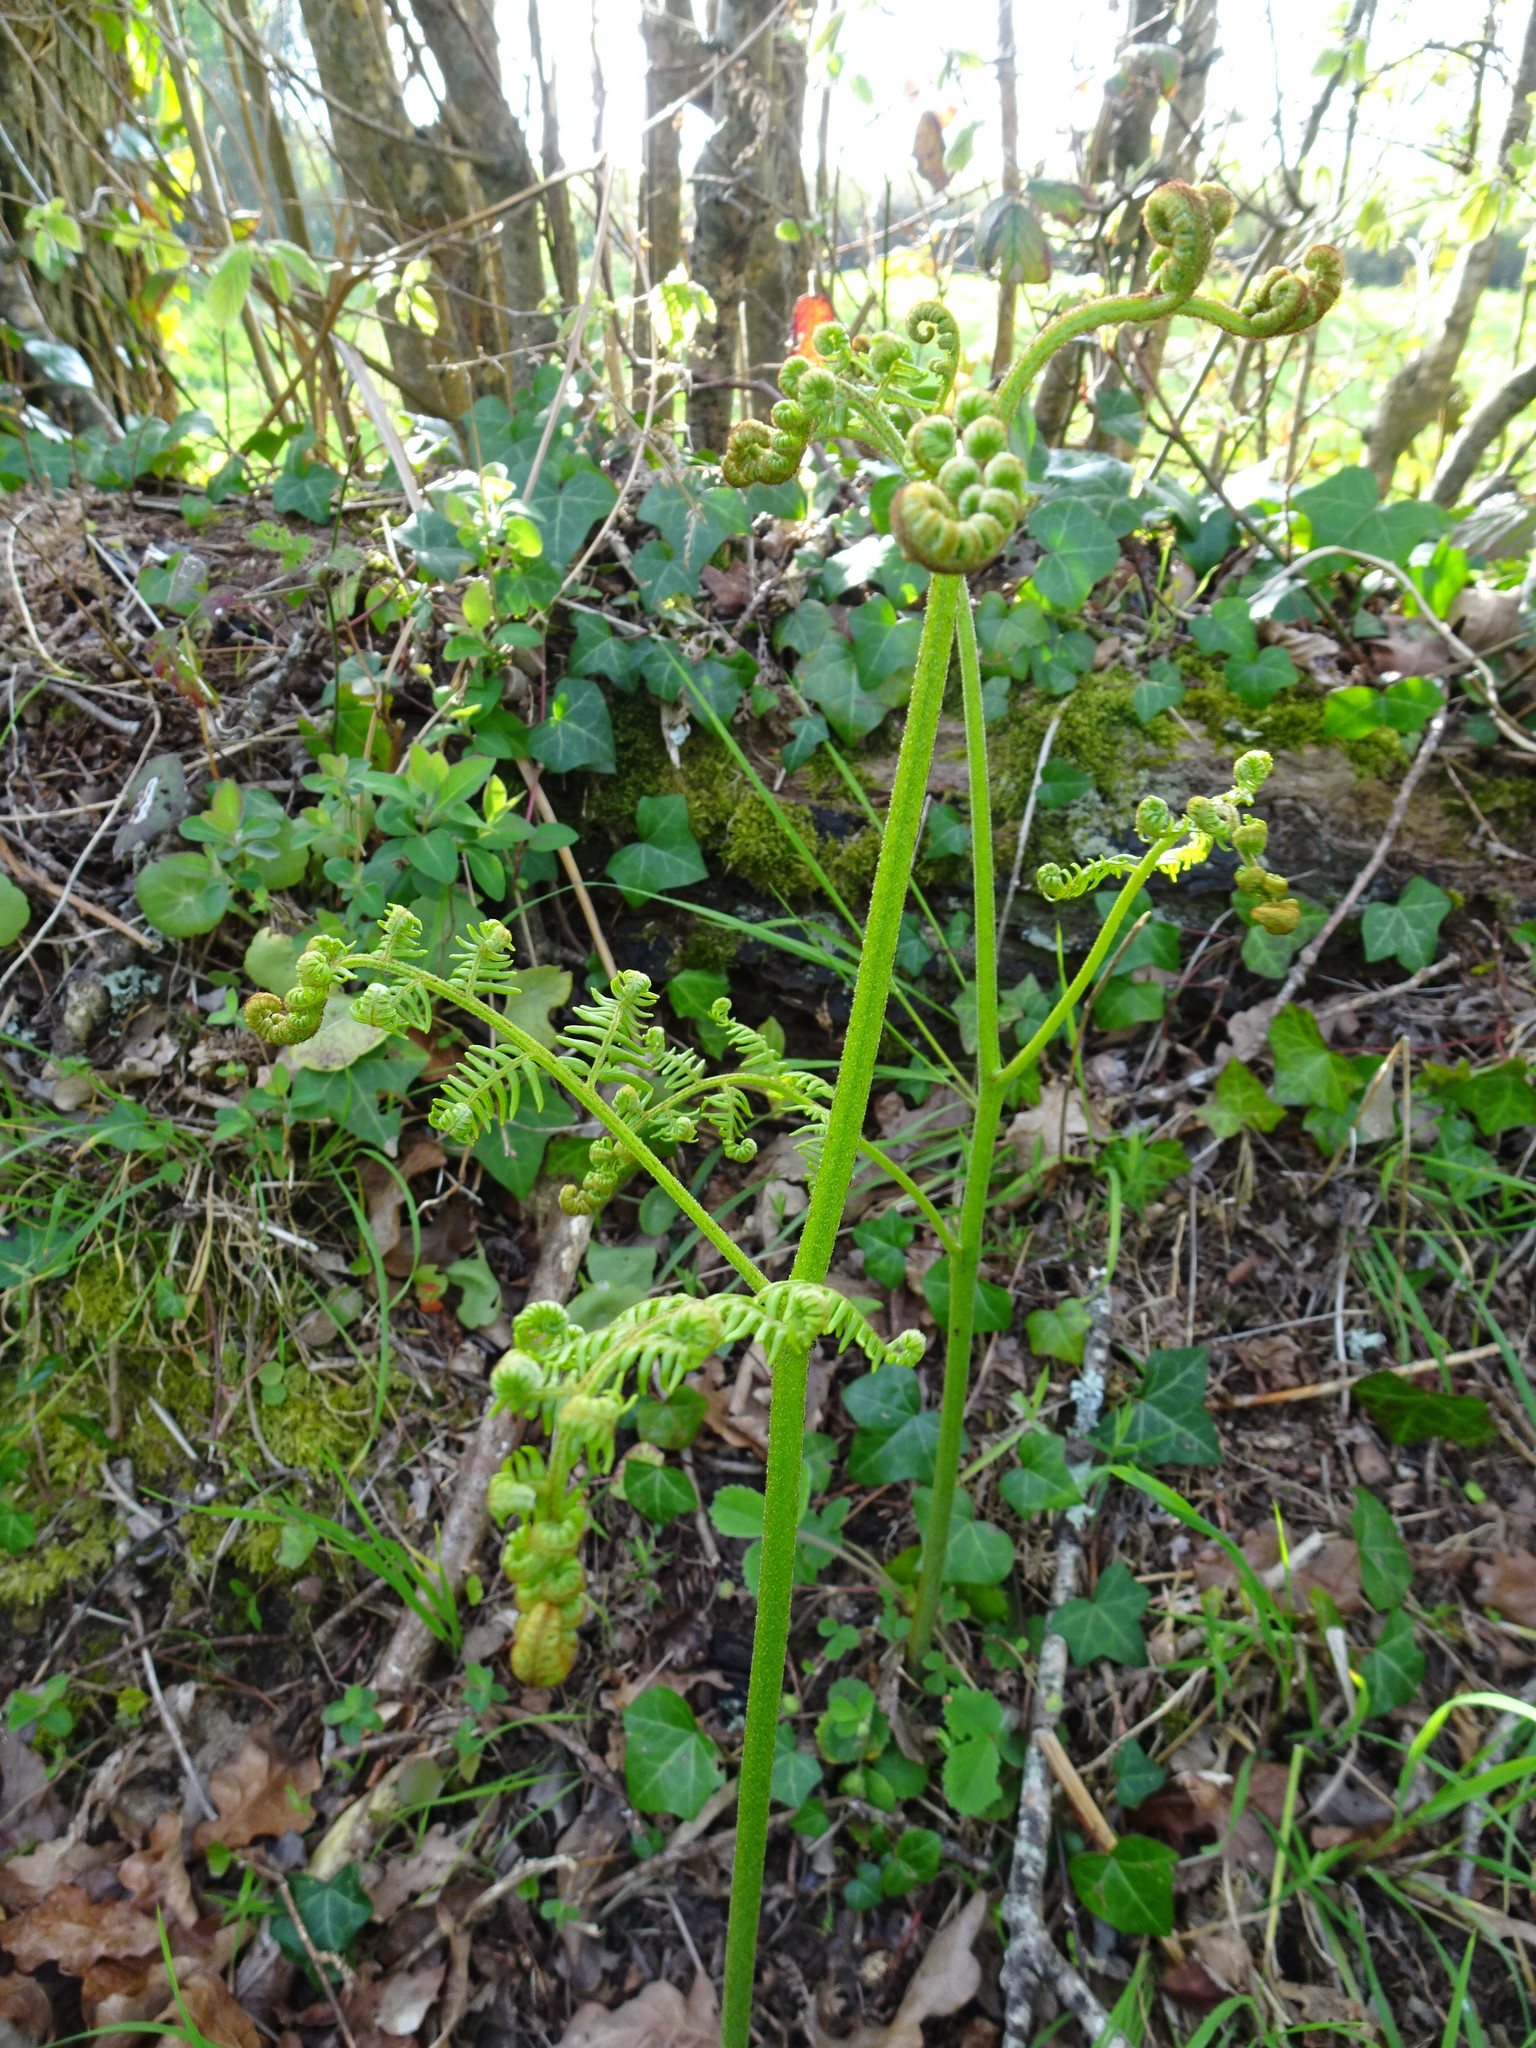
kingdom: Plantae
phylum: Tracheophyta
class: Polypodiopsida
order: Polypodiales
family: Dennstaedtiaceae
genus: Pteridium
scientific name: Pteridium aquilinum
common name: Bracken
